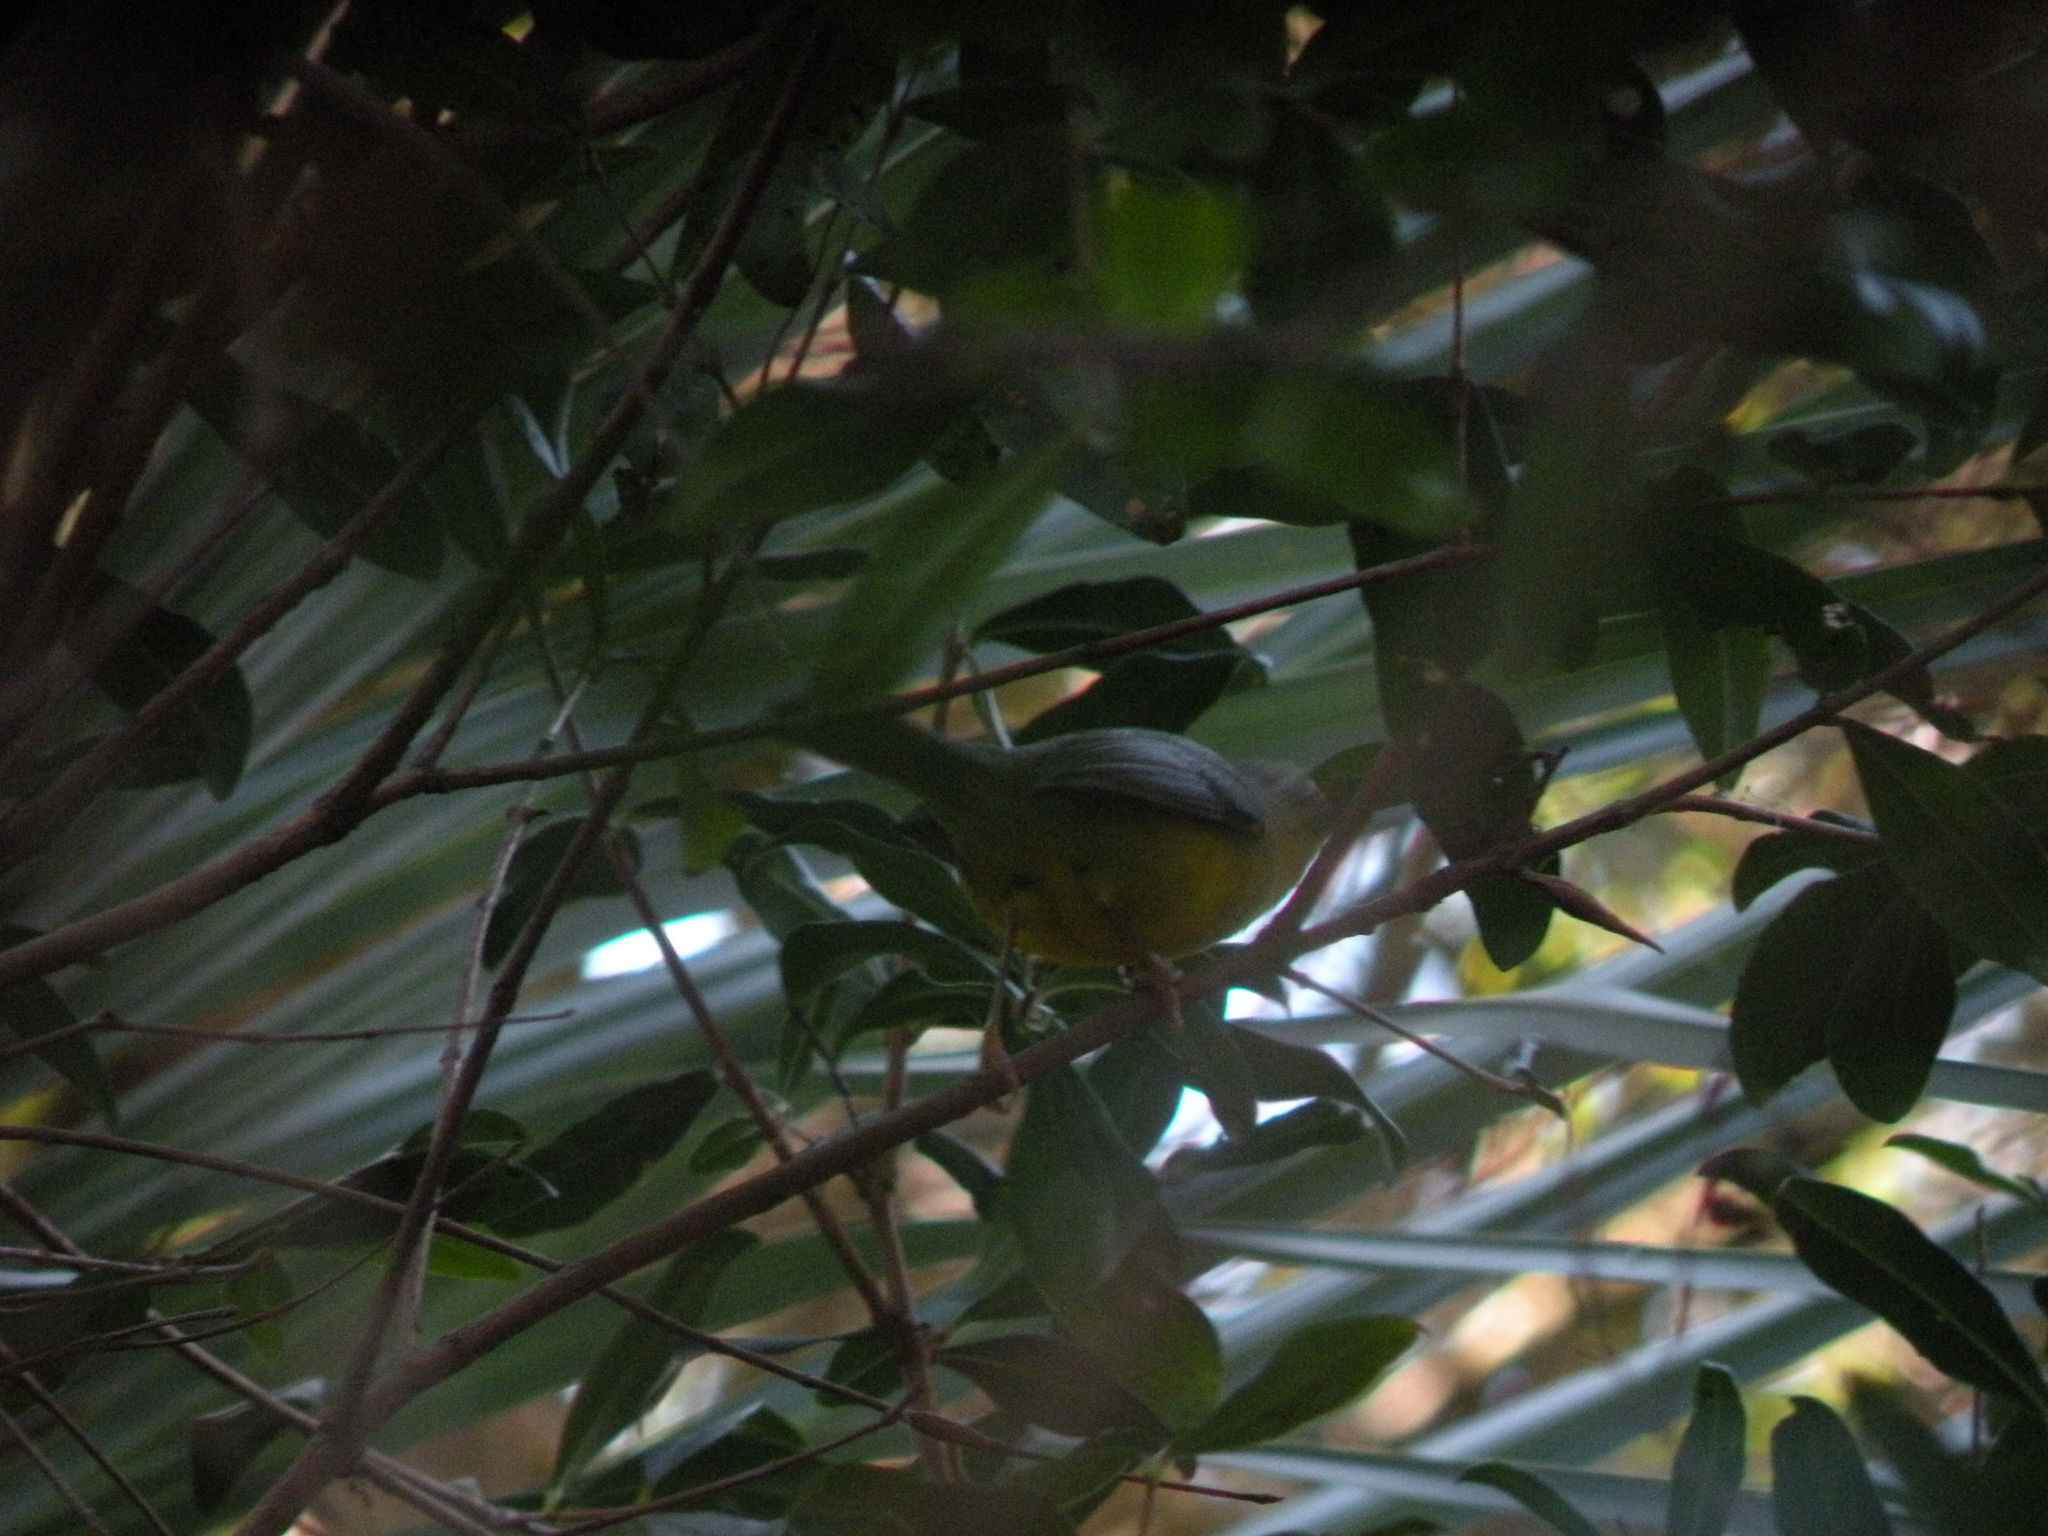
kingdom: Animalia
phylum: Chordata
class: Aves
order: Passeriformes
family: Parulidae
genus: Basileuterus
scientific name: Basileuterus culicivorus
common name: Golden-crowned warbler
